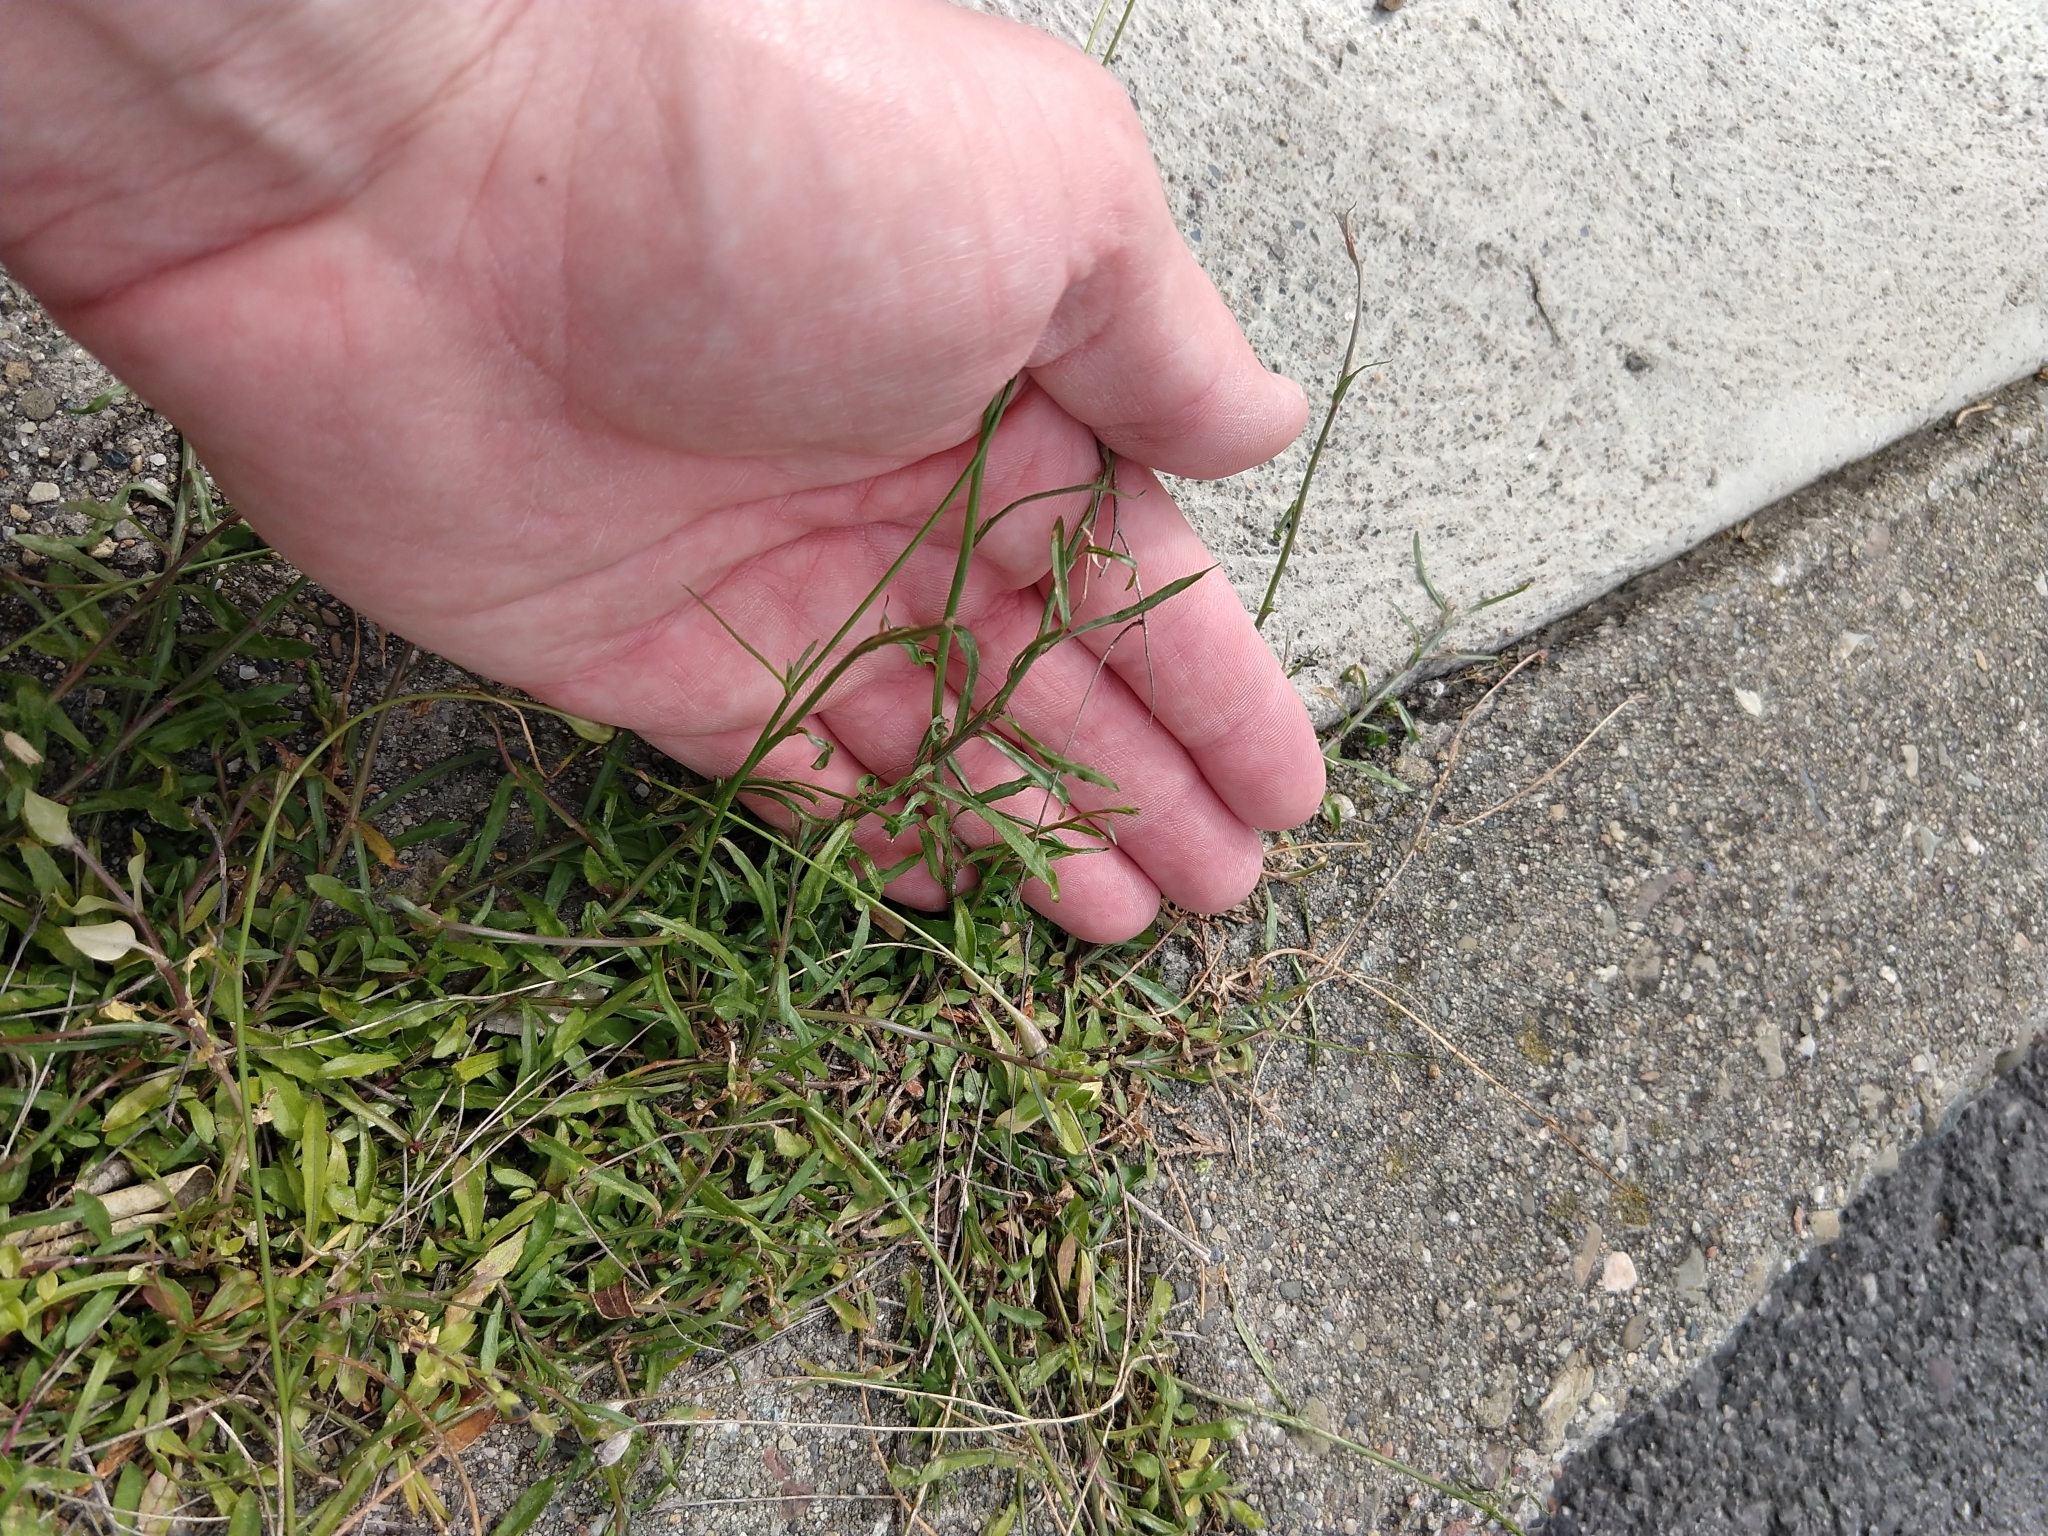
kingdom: Plantae
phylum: Tracheophyta
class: Magnoliopsida
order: Asterales
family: Campanulaceae
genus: Wahlenbergia
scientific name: Wahlenbergia marginata
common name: Southern rockbell
